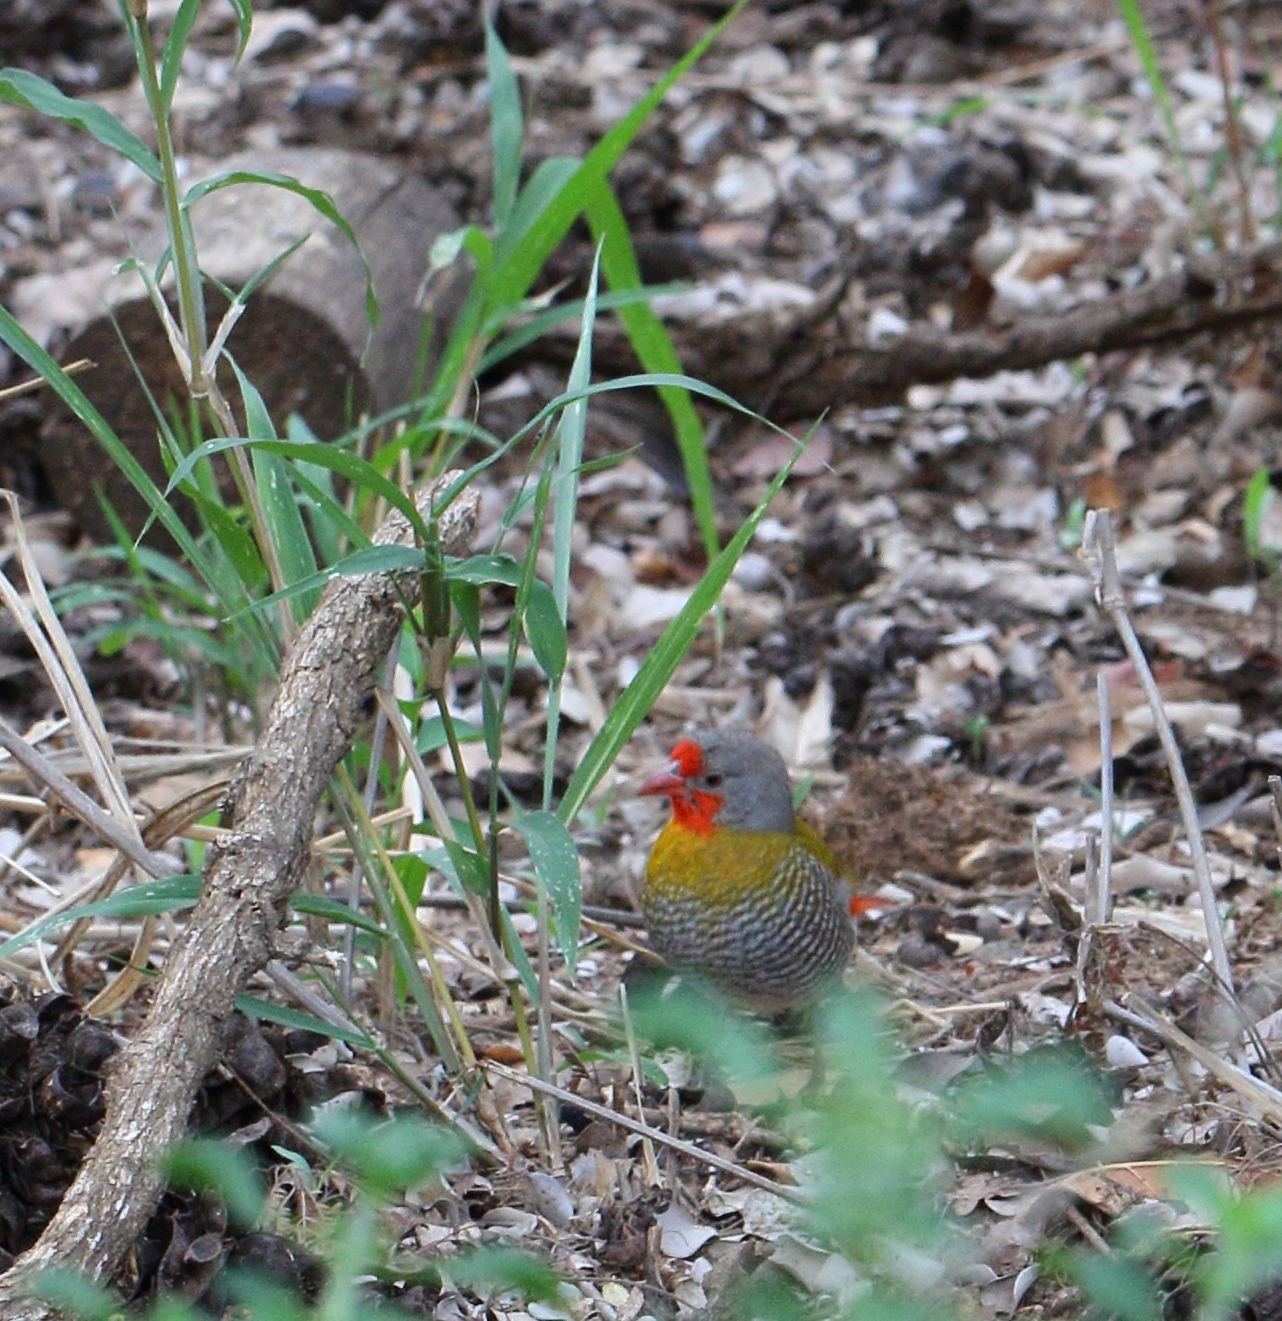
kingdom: Animalia
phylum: Chordata
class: Aves
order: Passeriformes
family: Estrildidae
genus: Pytilia
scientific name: Pytilia melba
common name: Green-winged pytilia
